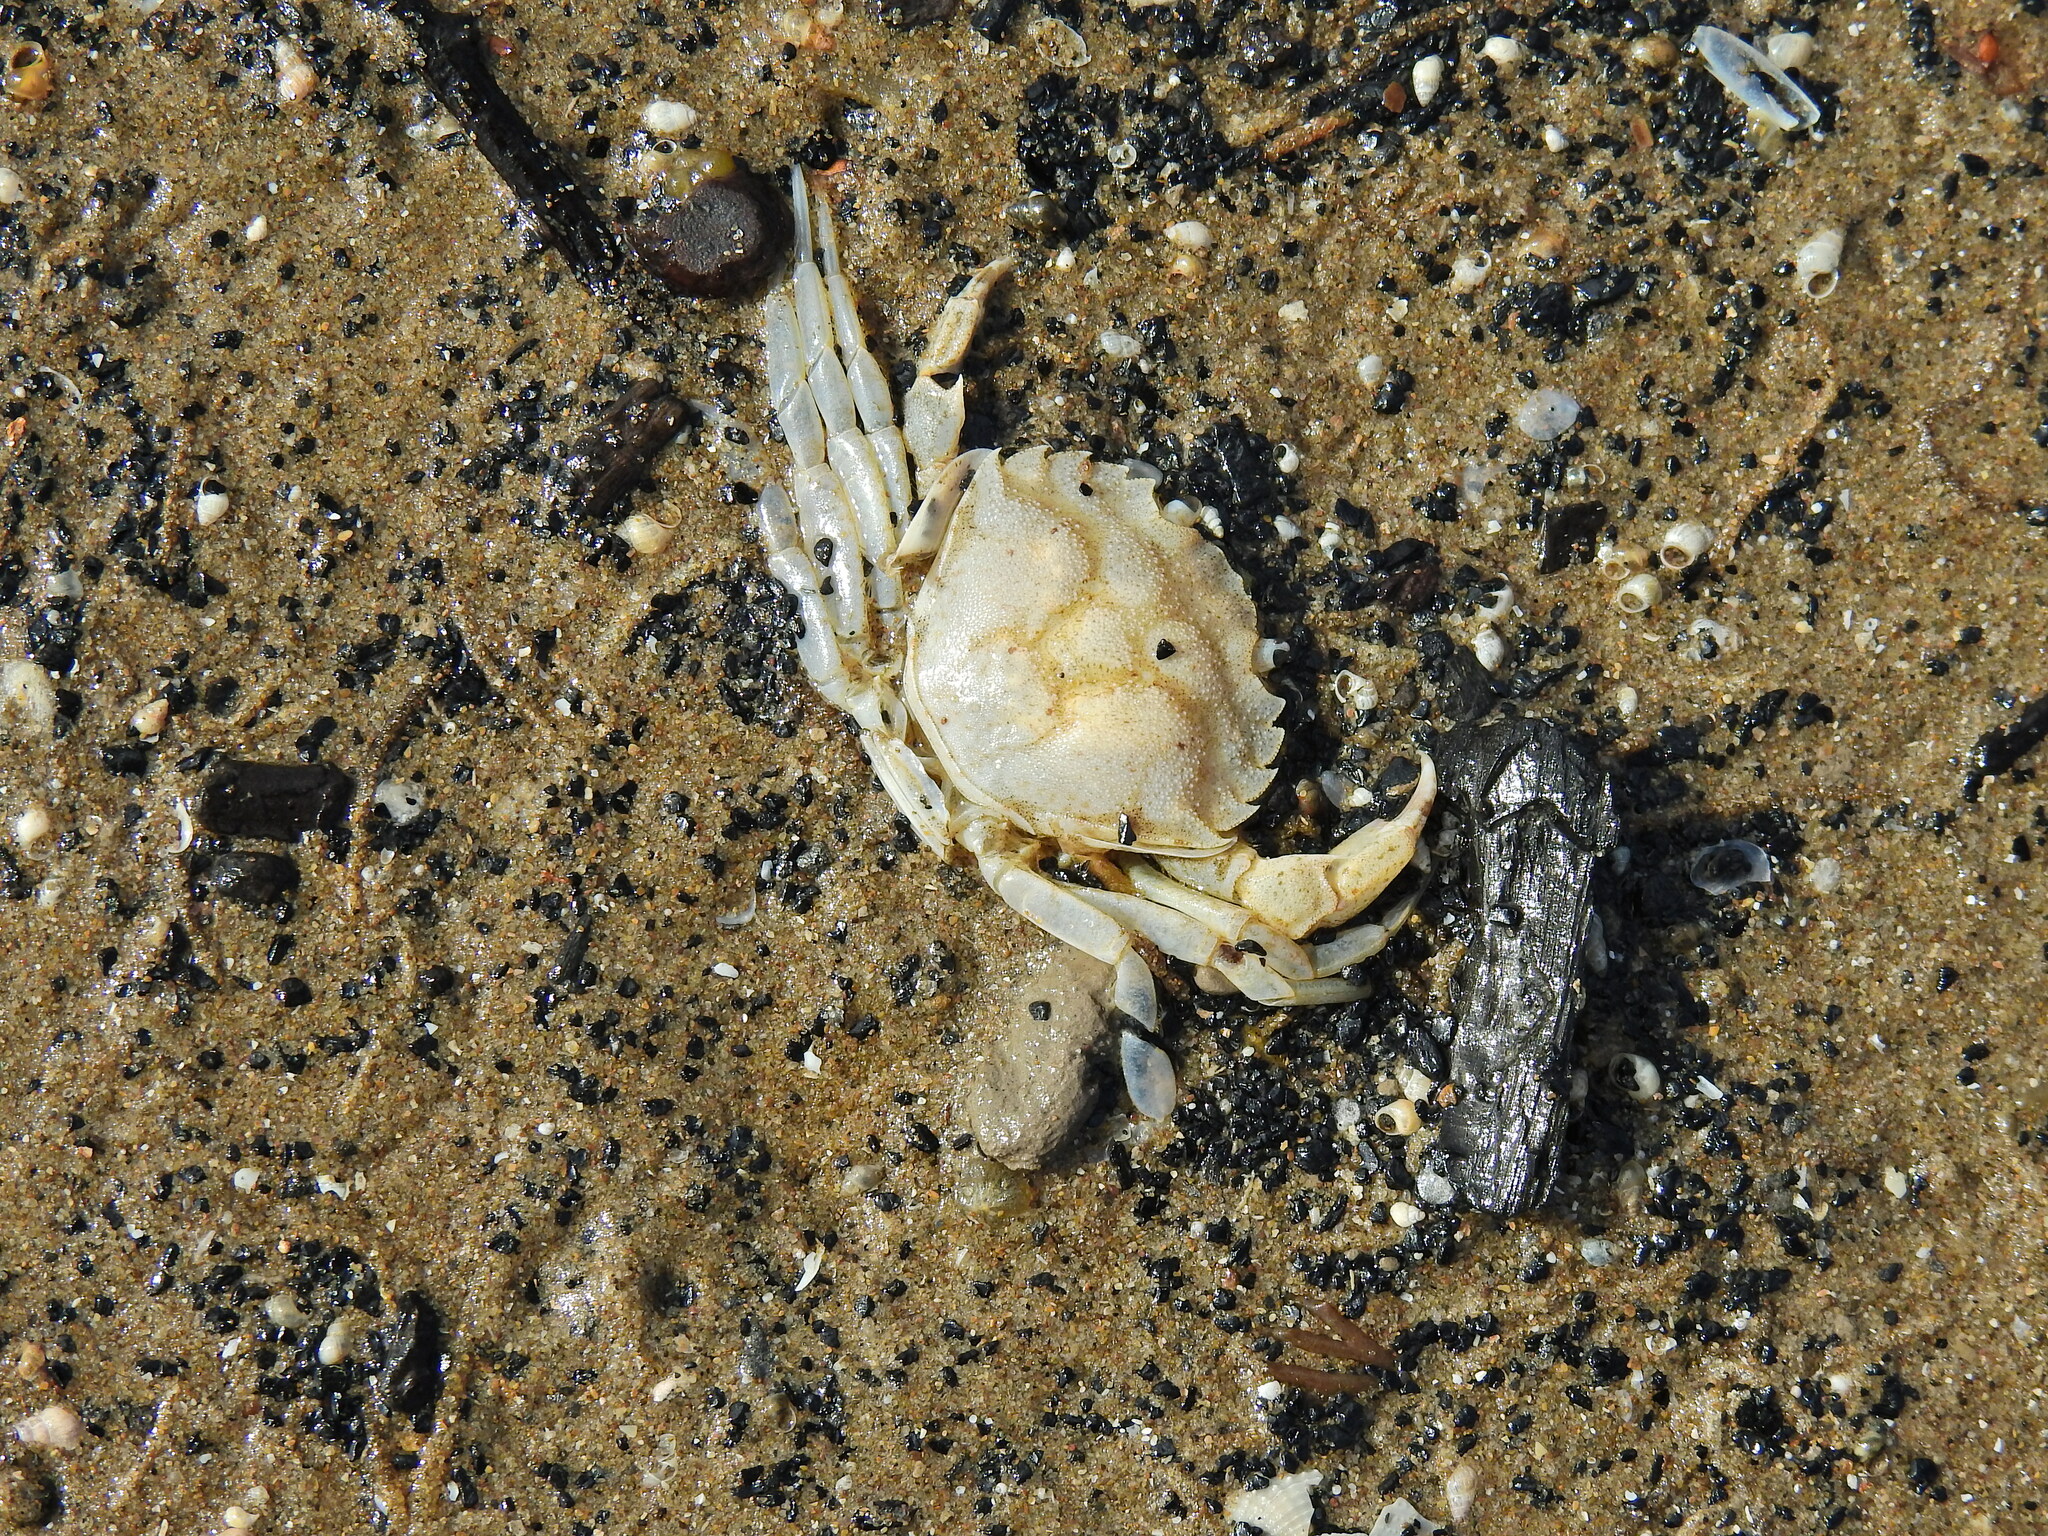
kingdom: Animalia
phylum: Arthropoda
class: Malacostraca
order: Decapoda
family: Carcinidae
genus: Carcinus
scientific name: Carcinus maenas
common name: European green crab
